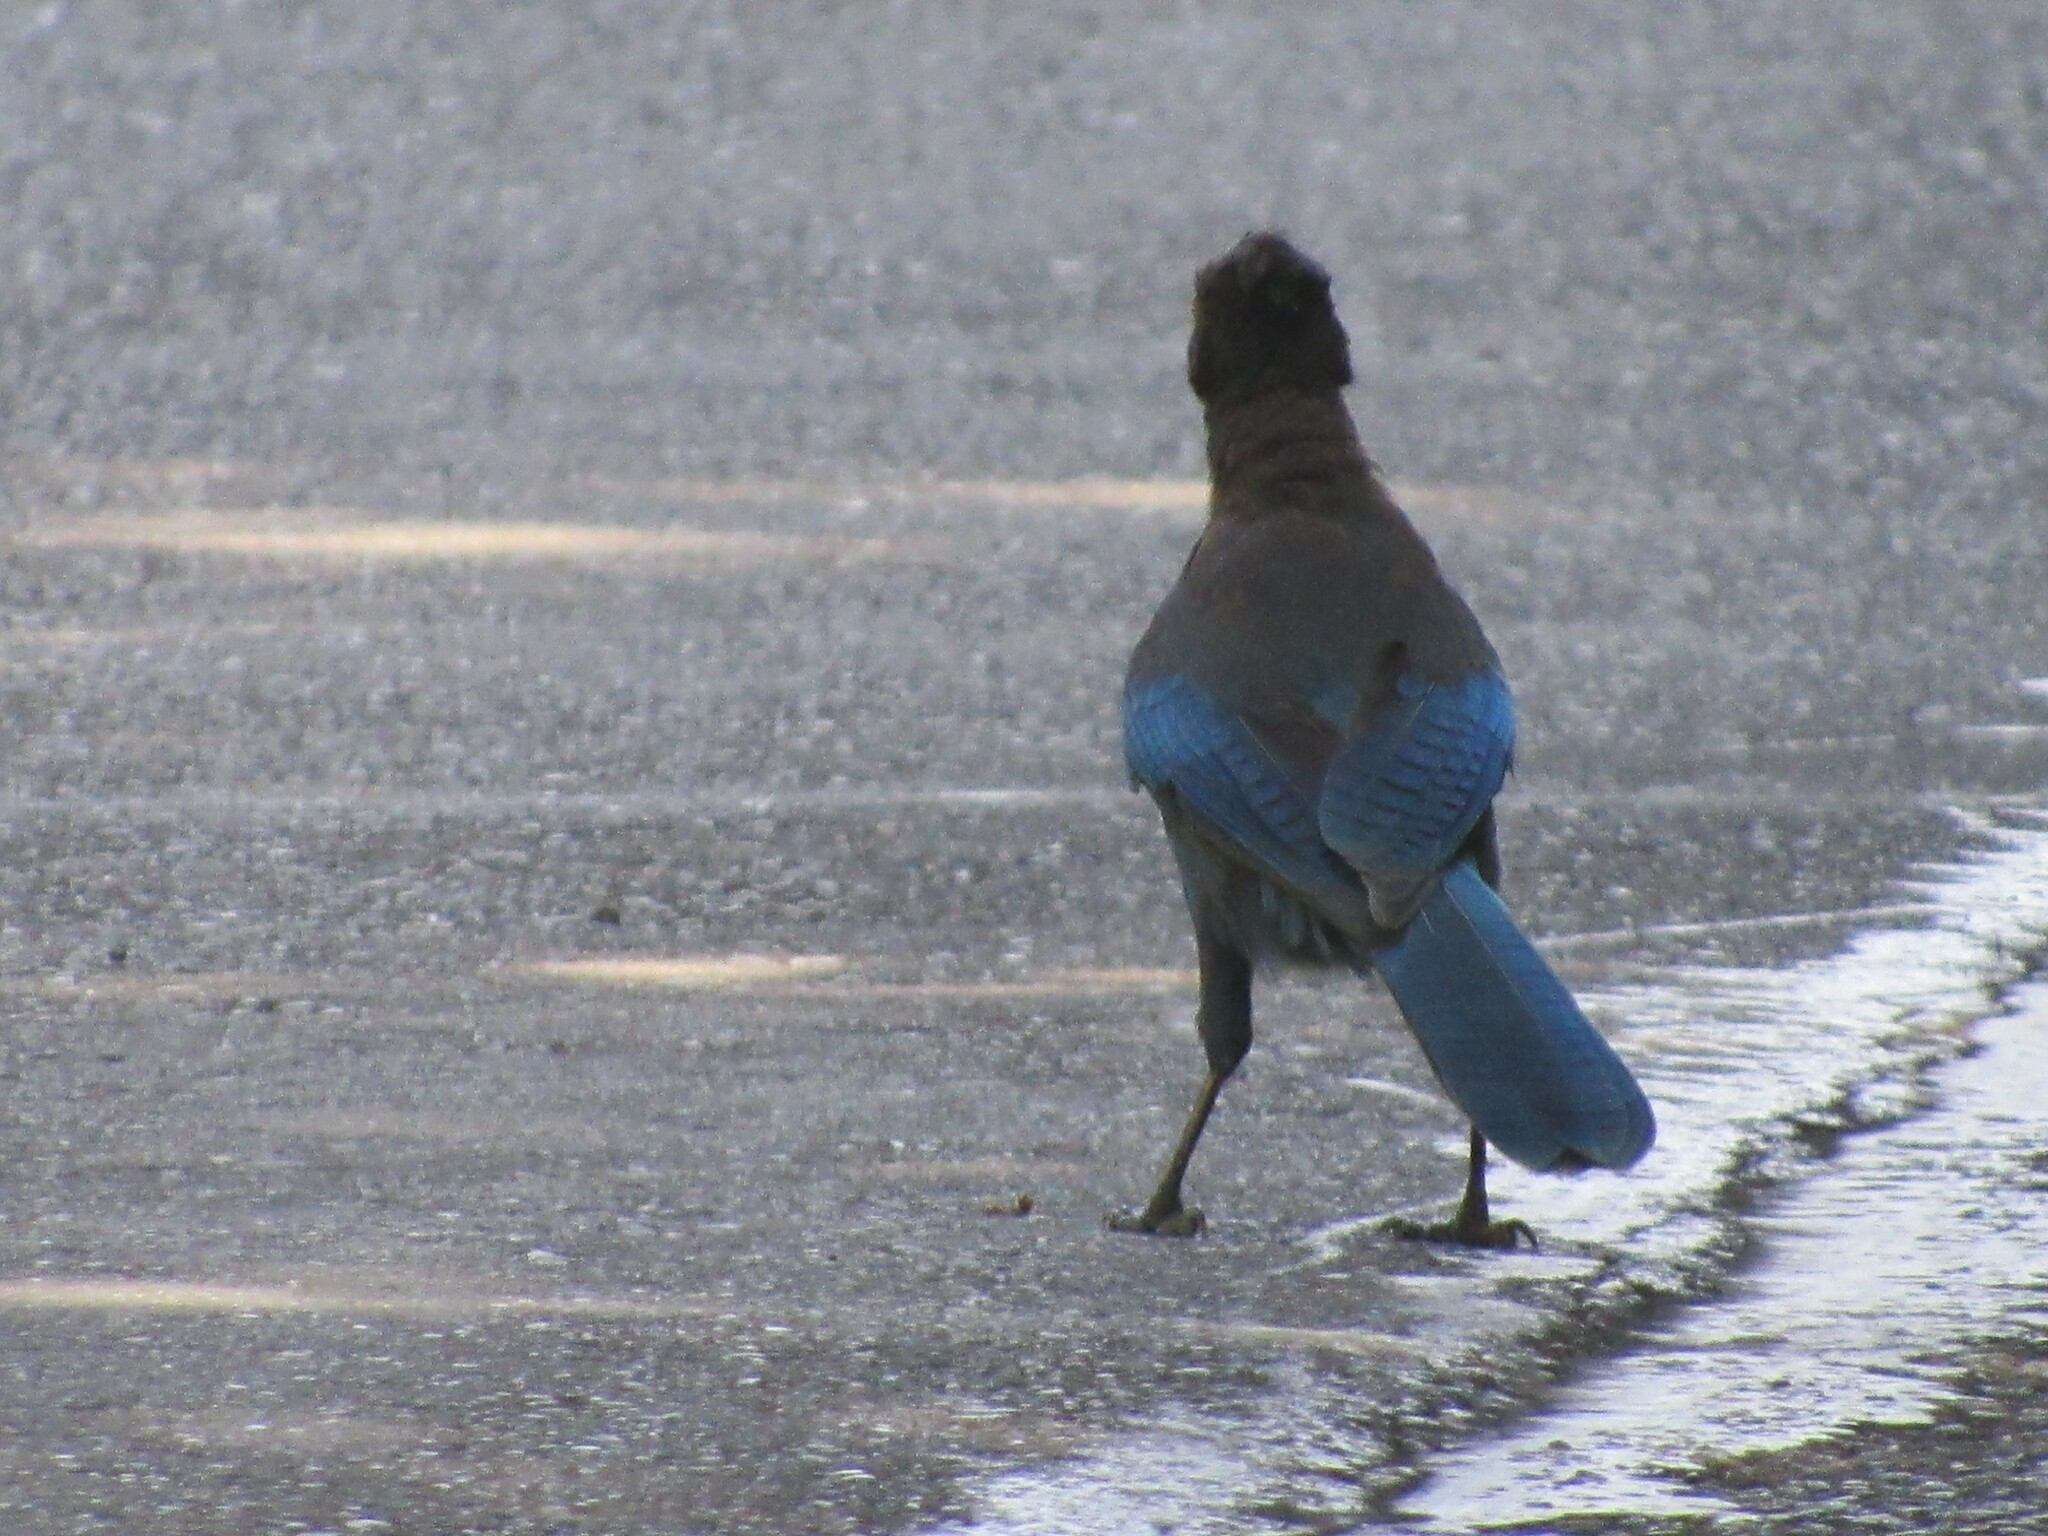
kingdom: Animalia
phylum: Chordata
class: Aves
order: Passeriformes
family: Corvidae
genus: Cyanocitta
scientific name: Cyanocitta stelleri
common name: Steller's jay
